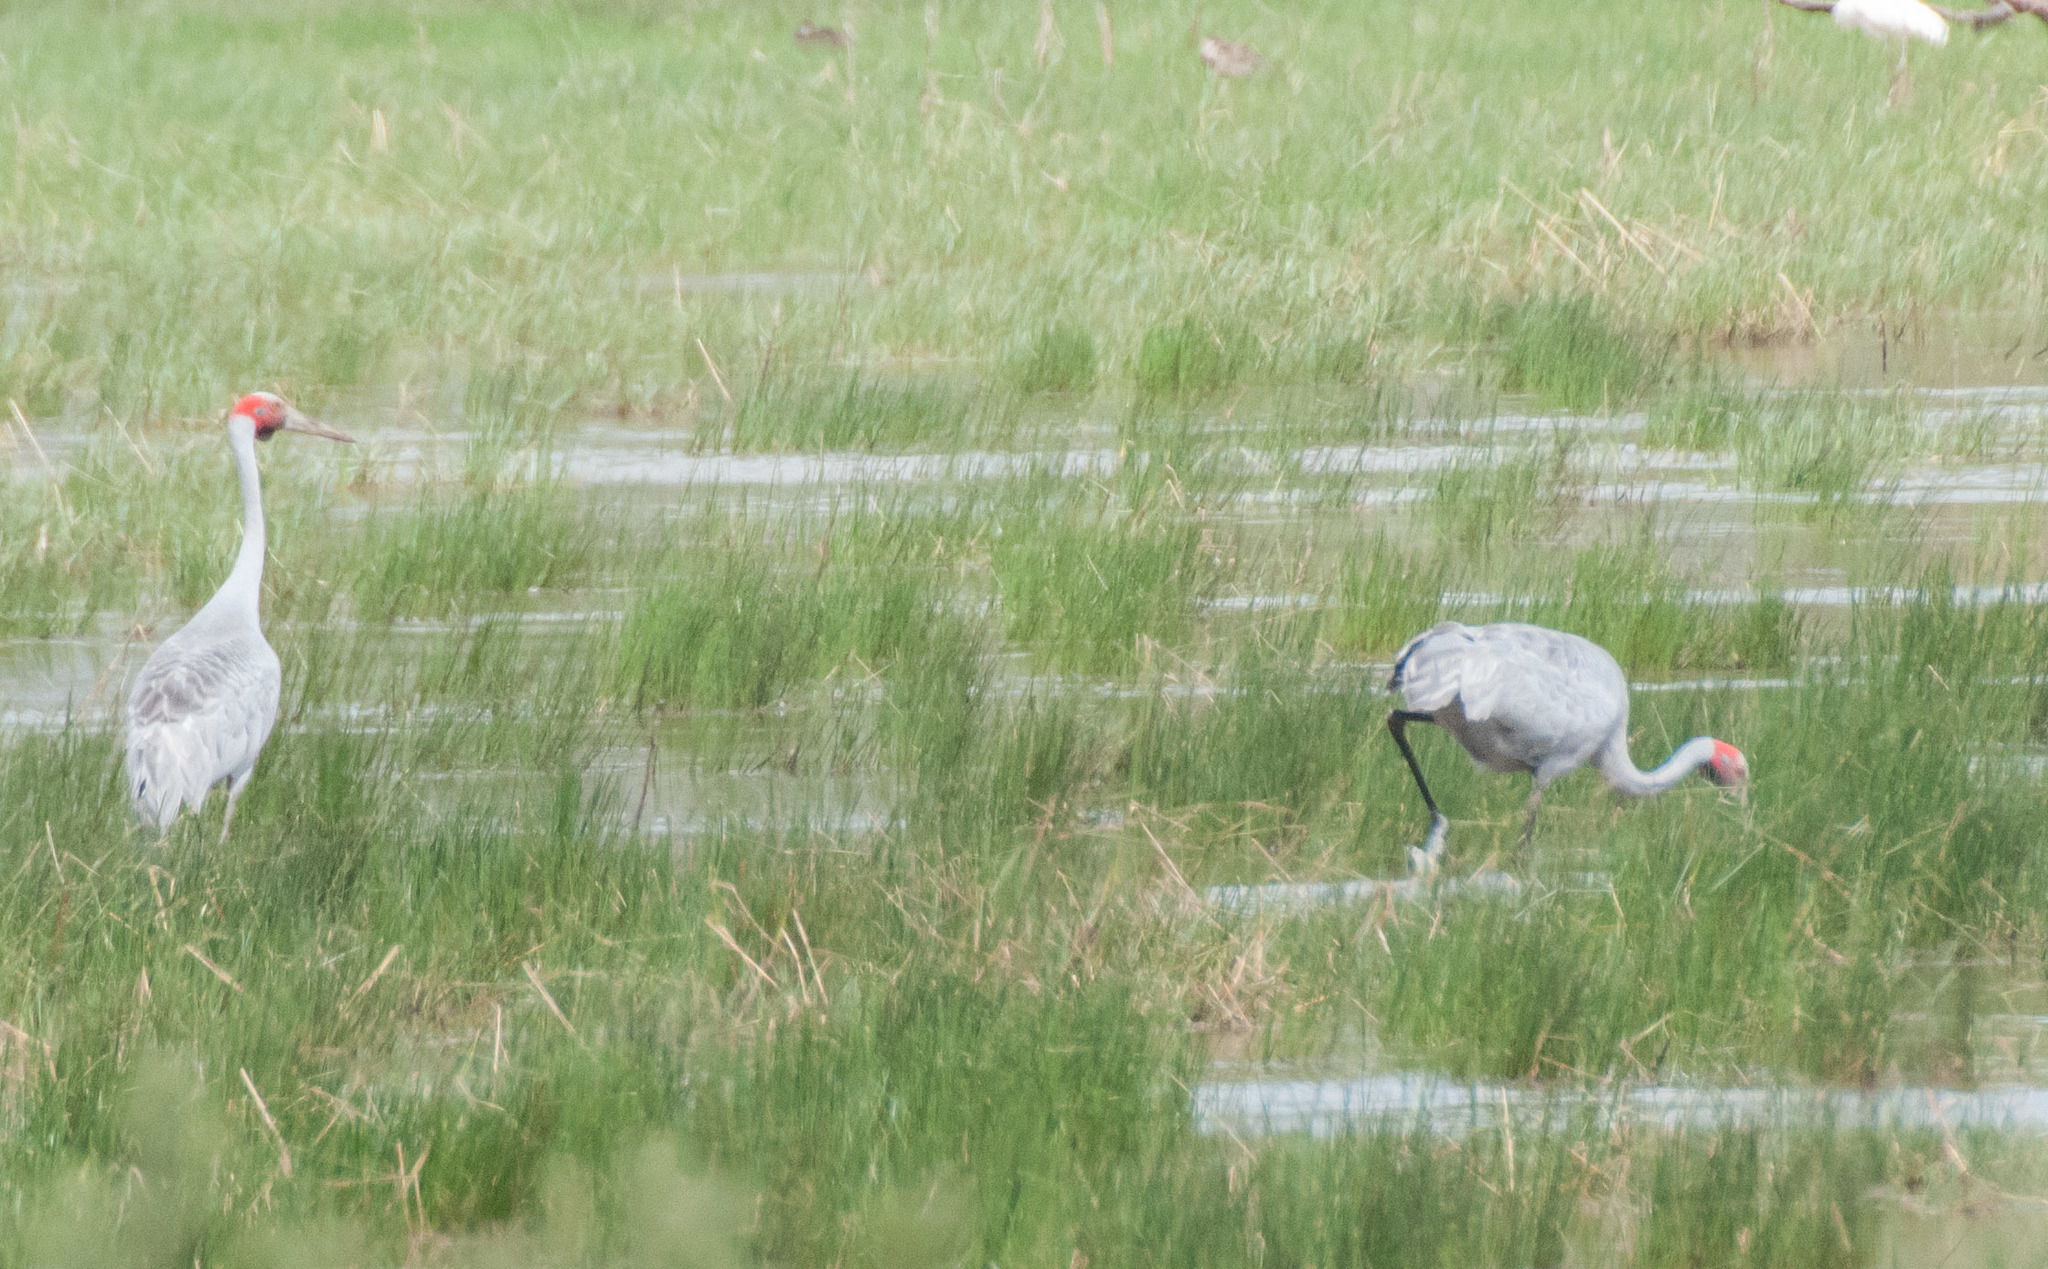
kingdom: Animalia
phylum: Chordata
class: Aves
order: Gruiformes
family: Gruidae
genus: Grus
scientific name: Grus rubicunda
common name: Brolga
